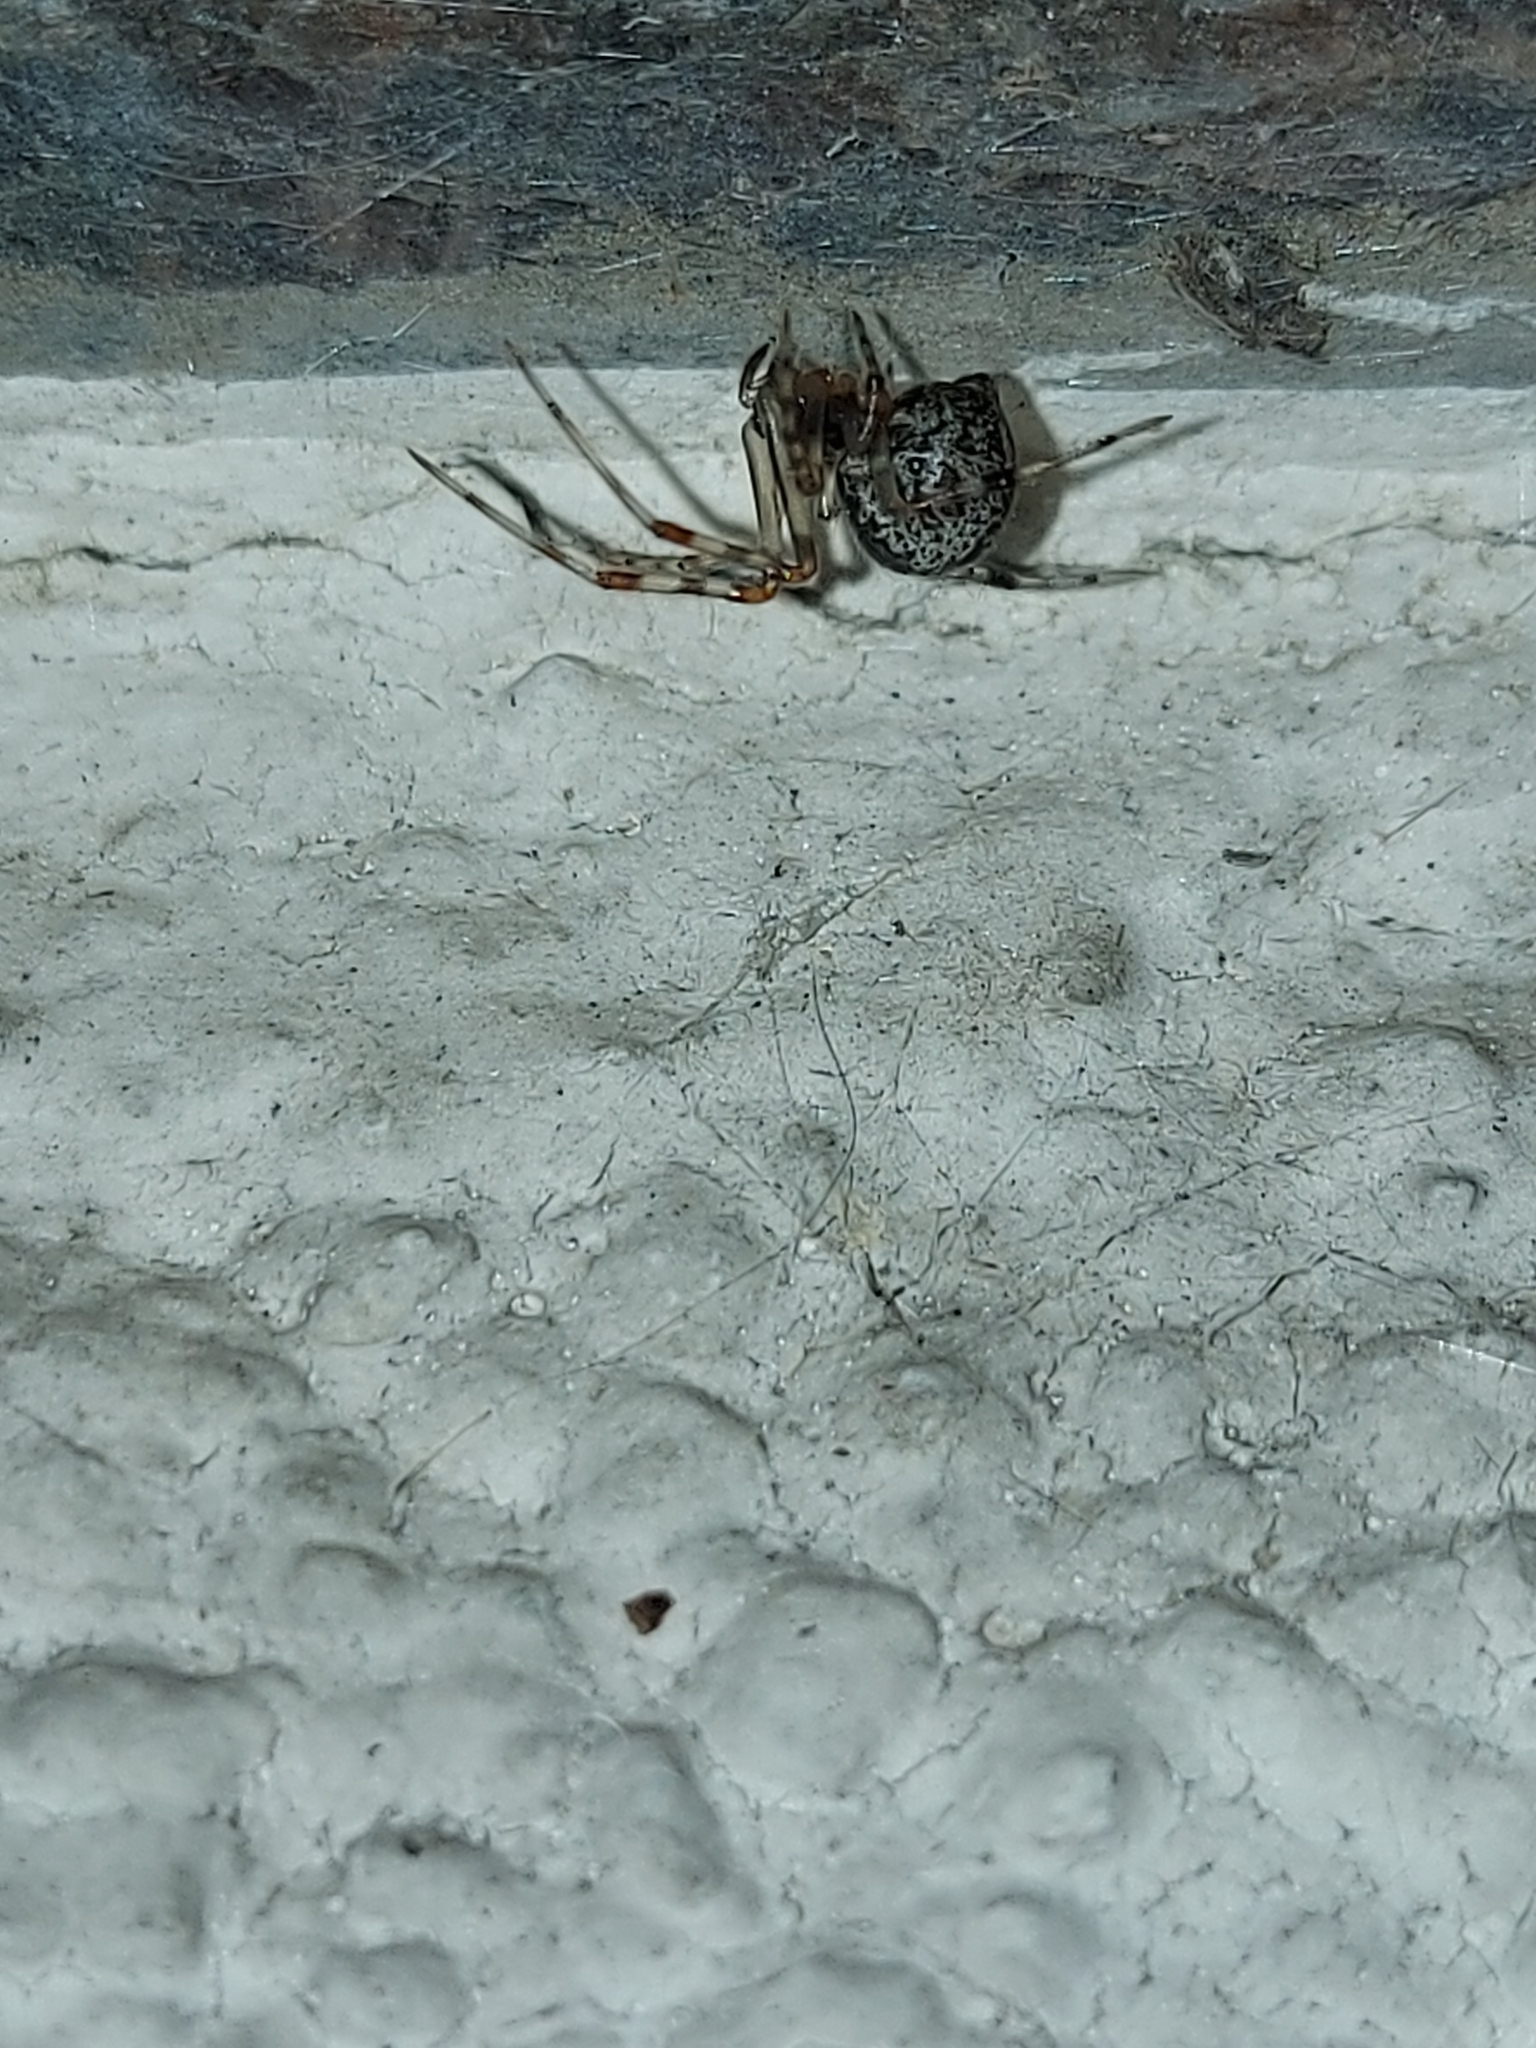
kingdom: Animalia
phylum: Arthropoda
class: Arachnida
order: Araneae
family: Theridiidae
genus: Parasteatoda
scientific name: Parasteatoda simulans
